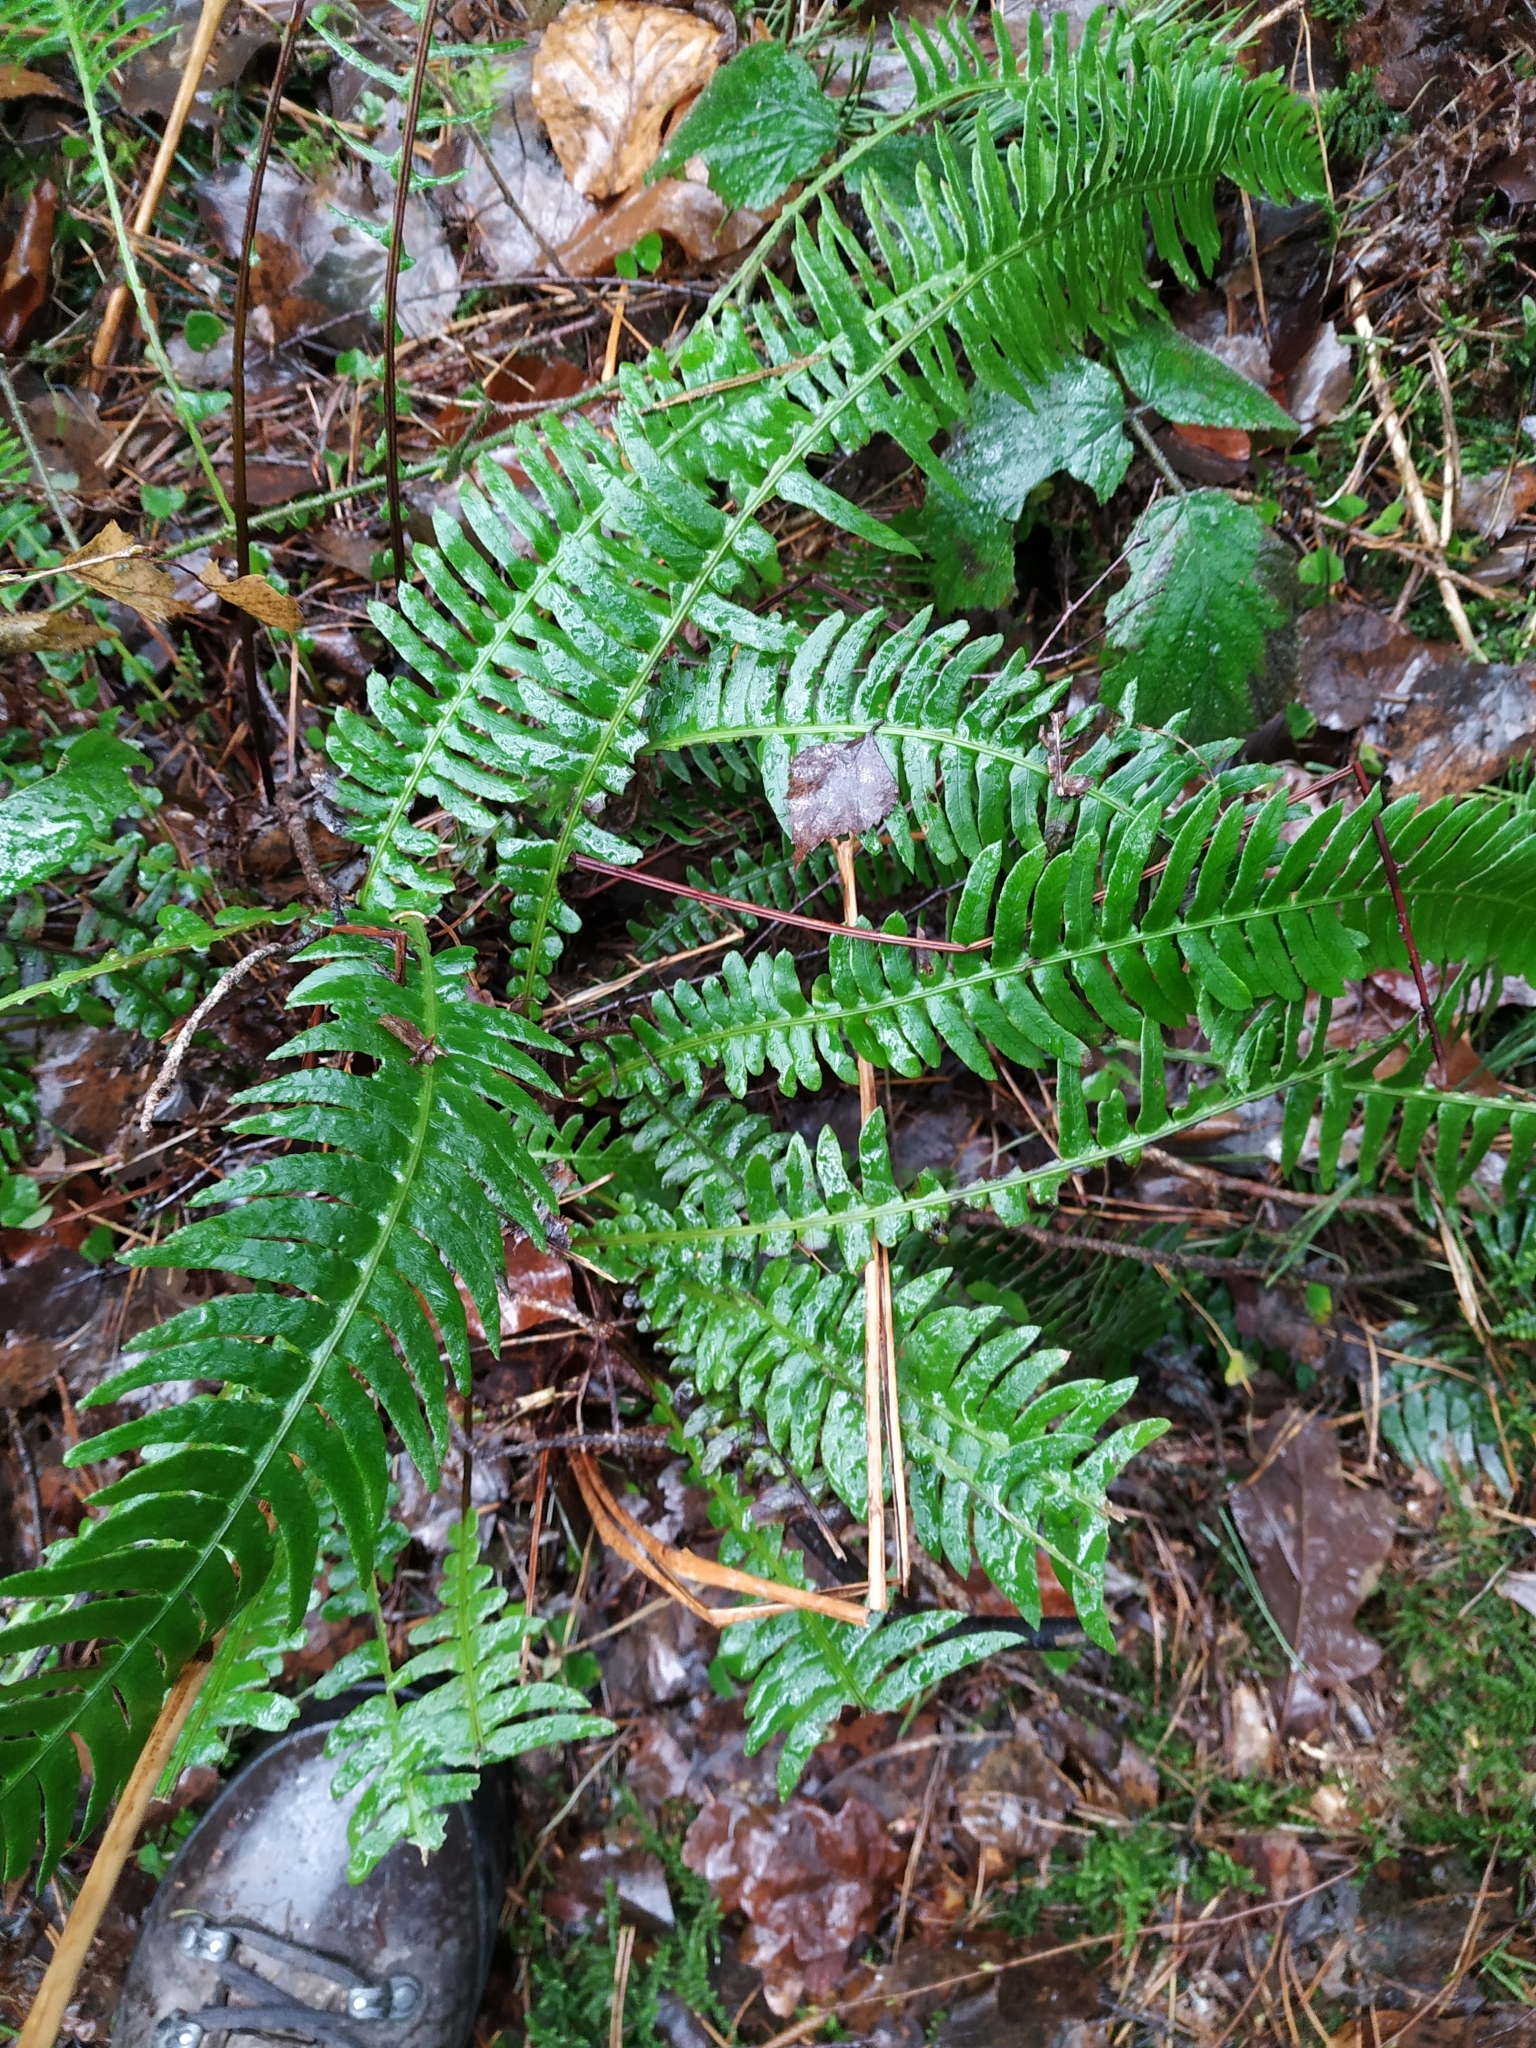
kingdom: Plantae
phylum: Tracheophyta
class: Polypodiopsida
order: Polypodiales
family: Blechnaceae
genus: Struthiopteris
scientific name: Struthiopteris spicant
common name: Deer fern
